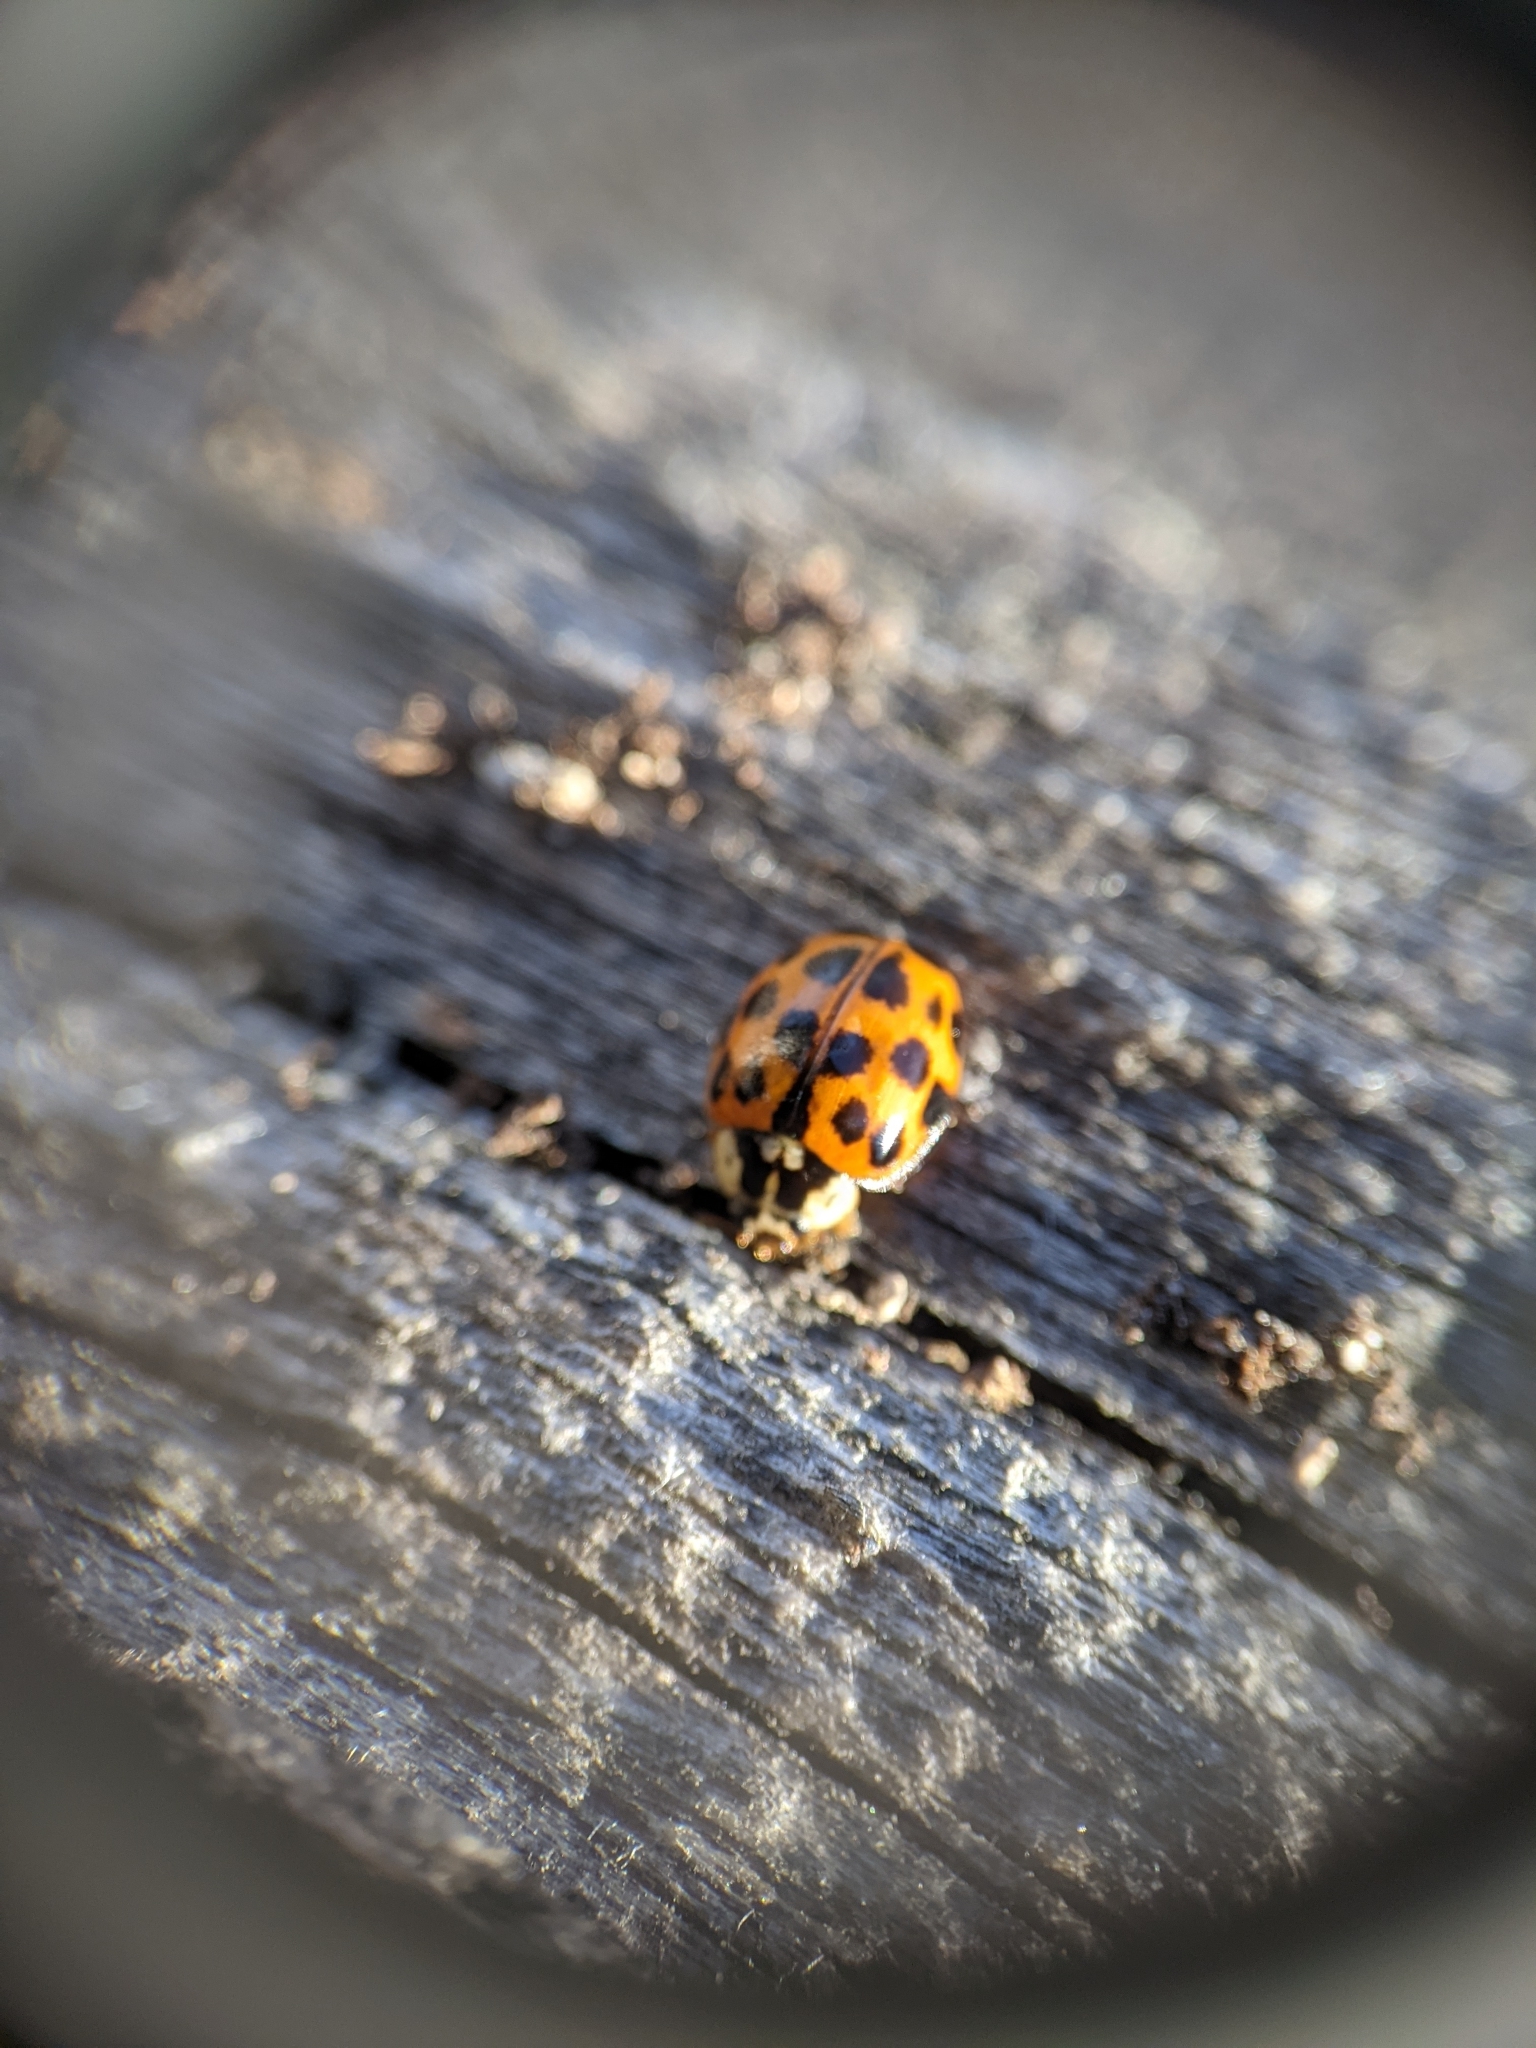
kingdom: Animalia
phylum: Arthropoda
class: Insecta
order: Coleoptera
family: Coccinellidae
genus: Harmonia
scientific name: Harmonia axyridis
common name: Harlequin ladybird
